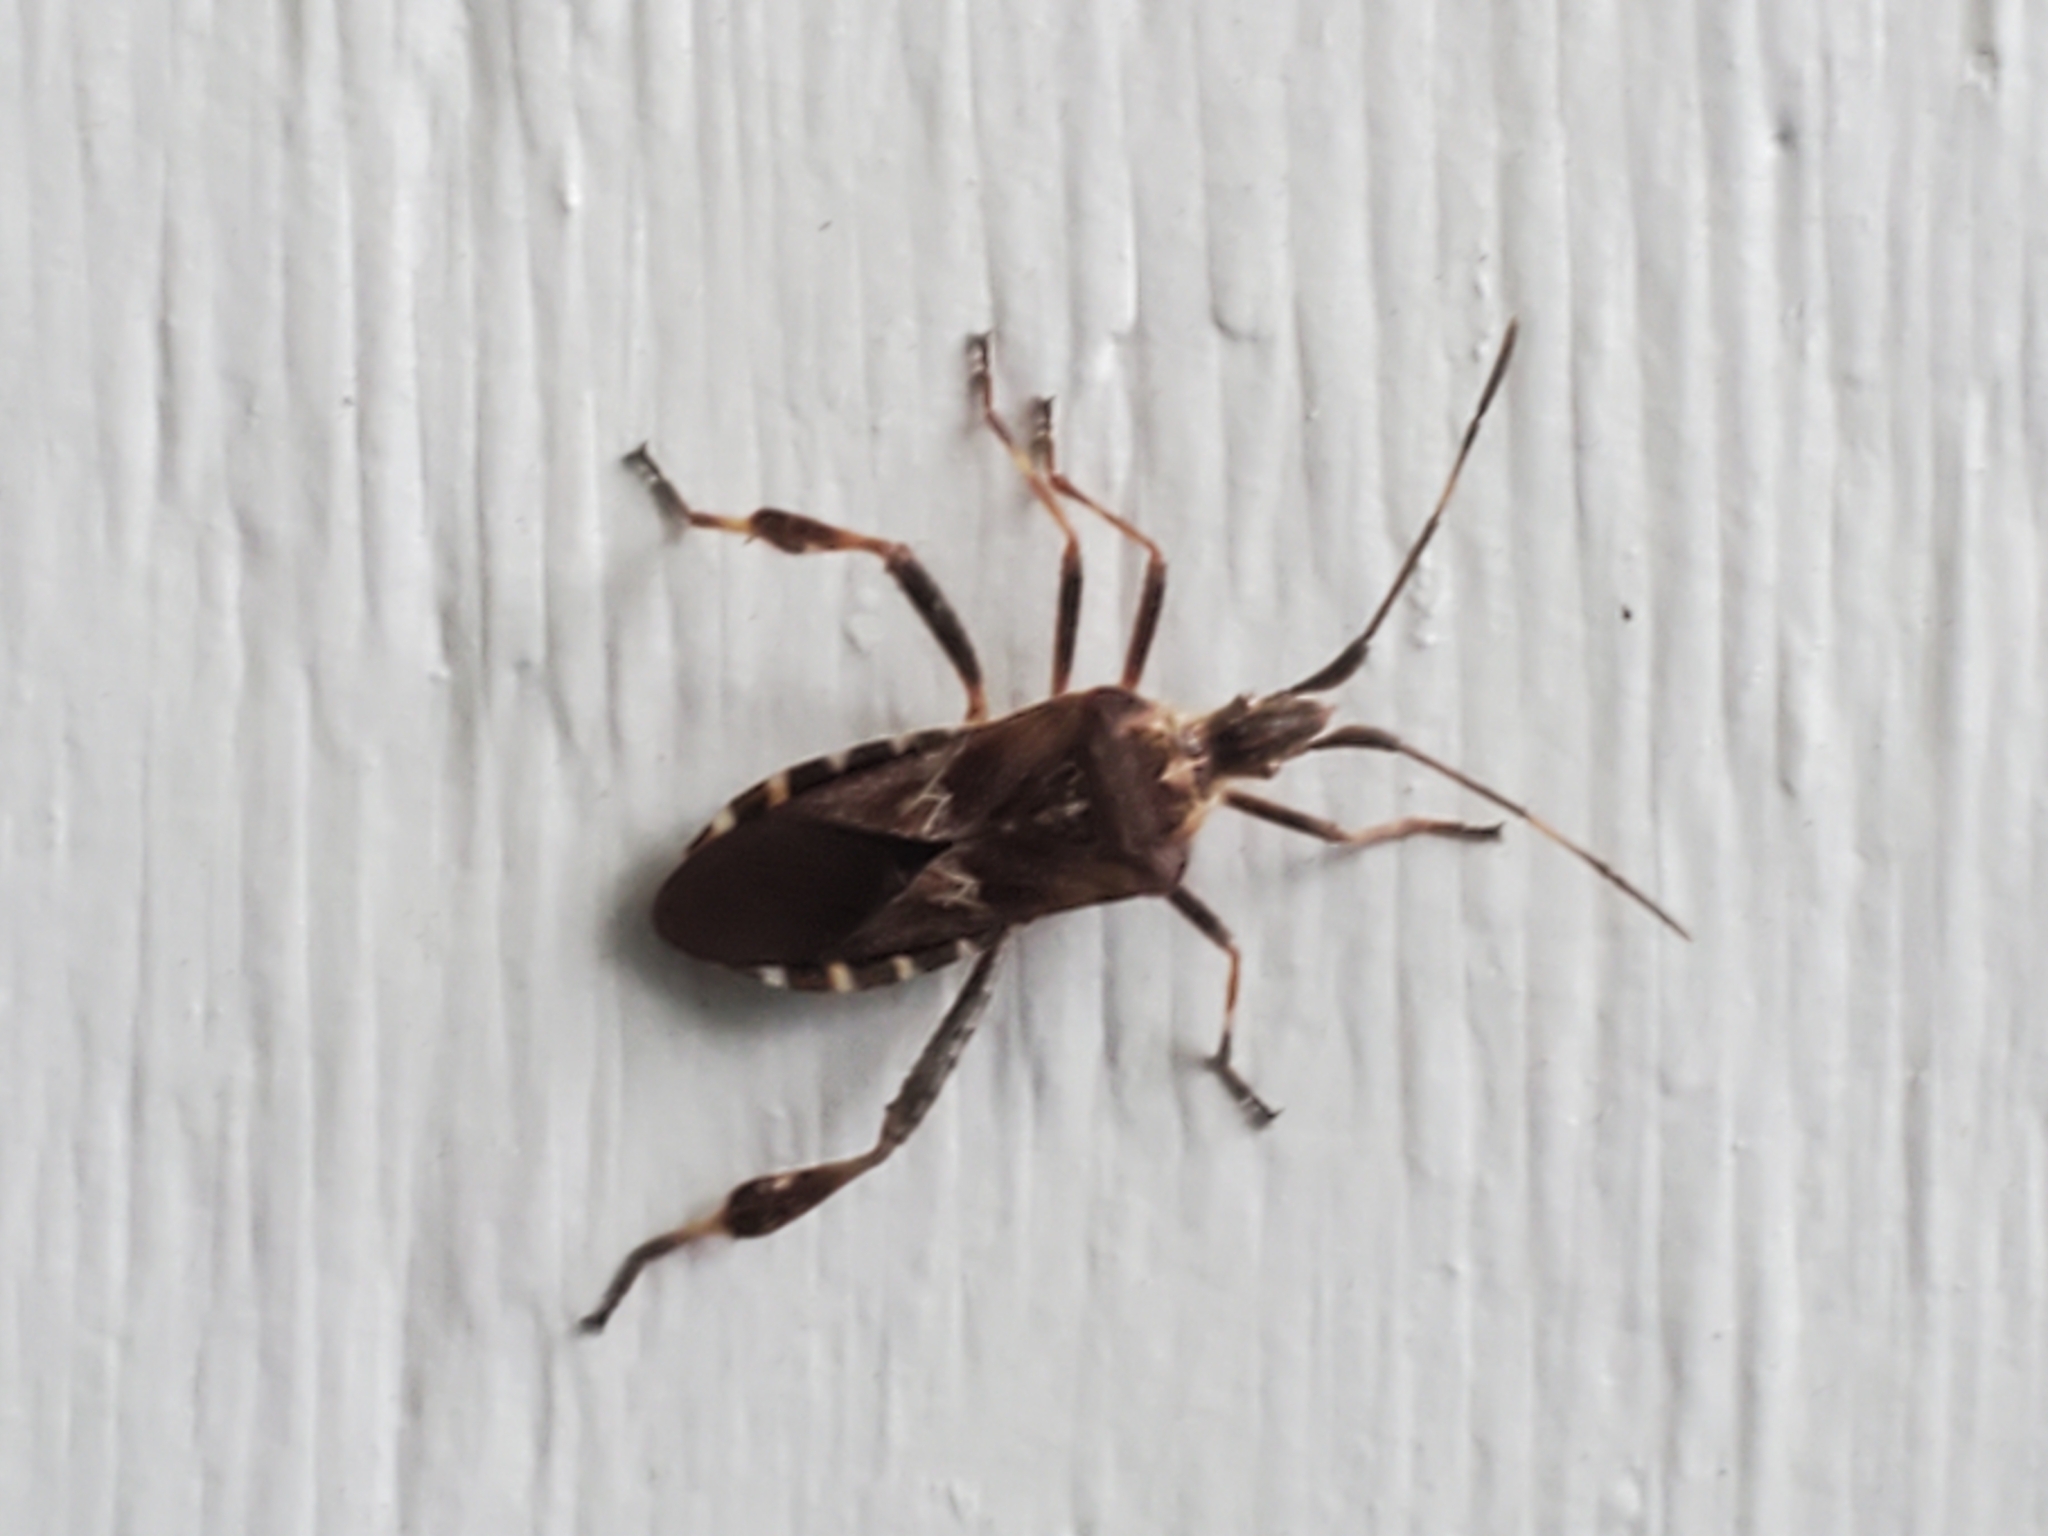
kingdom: Animalia
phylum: Arthropoda
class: Insecta
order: Hemiptera
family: Coreidae
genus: Leptoglossus
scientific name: Leptoglossus occidentalis
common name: Western conifer-seed bug
